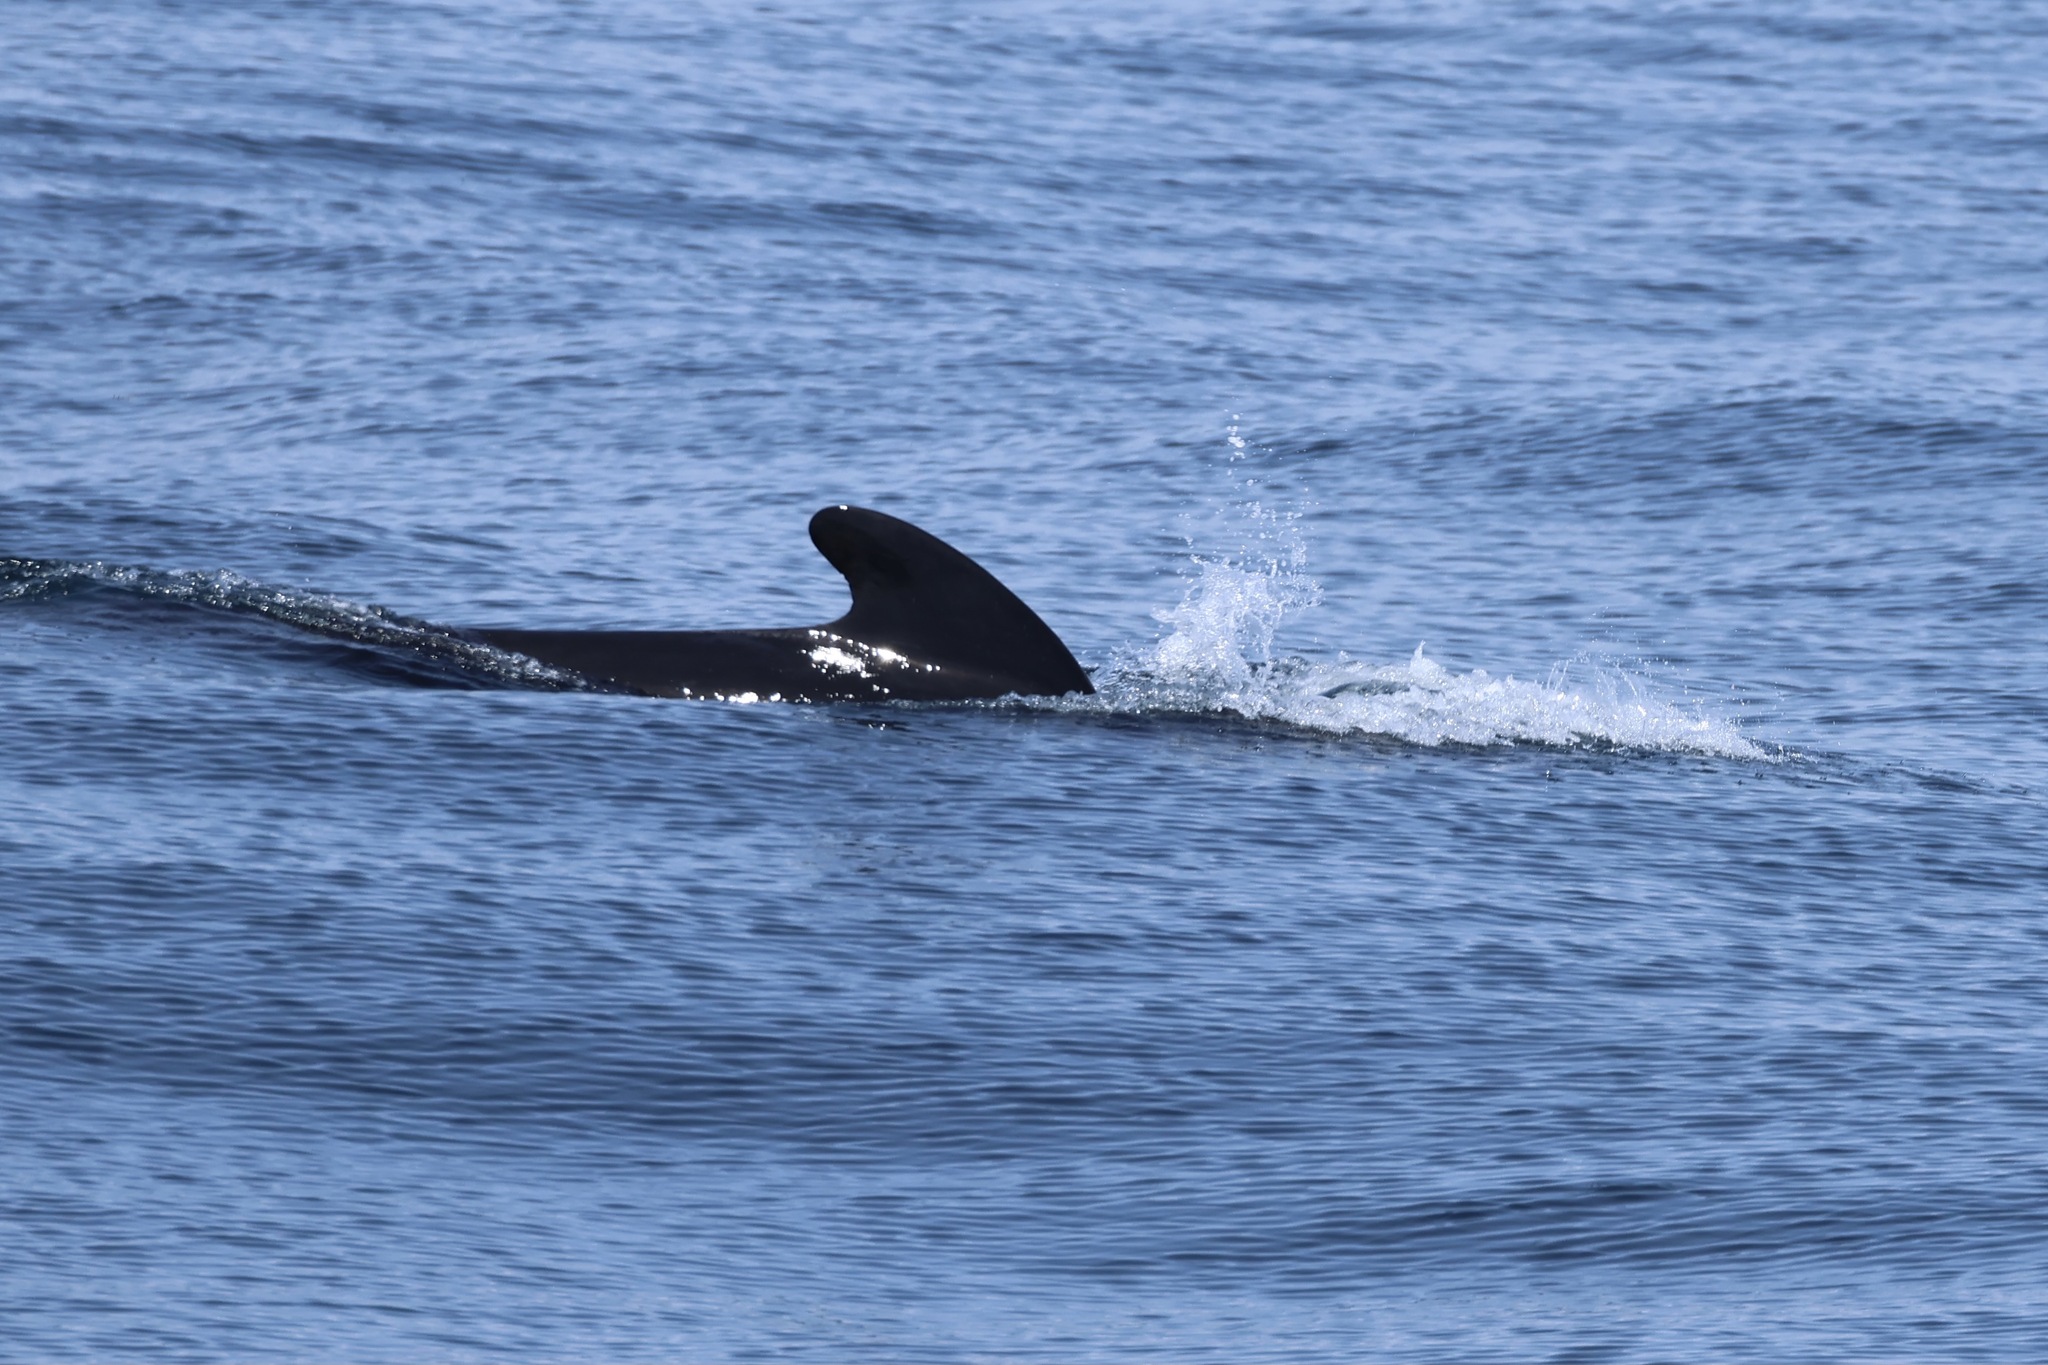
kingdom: Animalia
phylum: Chordata
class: Mammalia
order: Cetacea
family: Delphinidae
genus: Globicephala
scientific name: Globicephala melas
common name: Long-finned pilot whale
